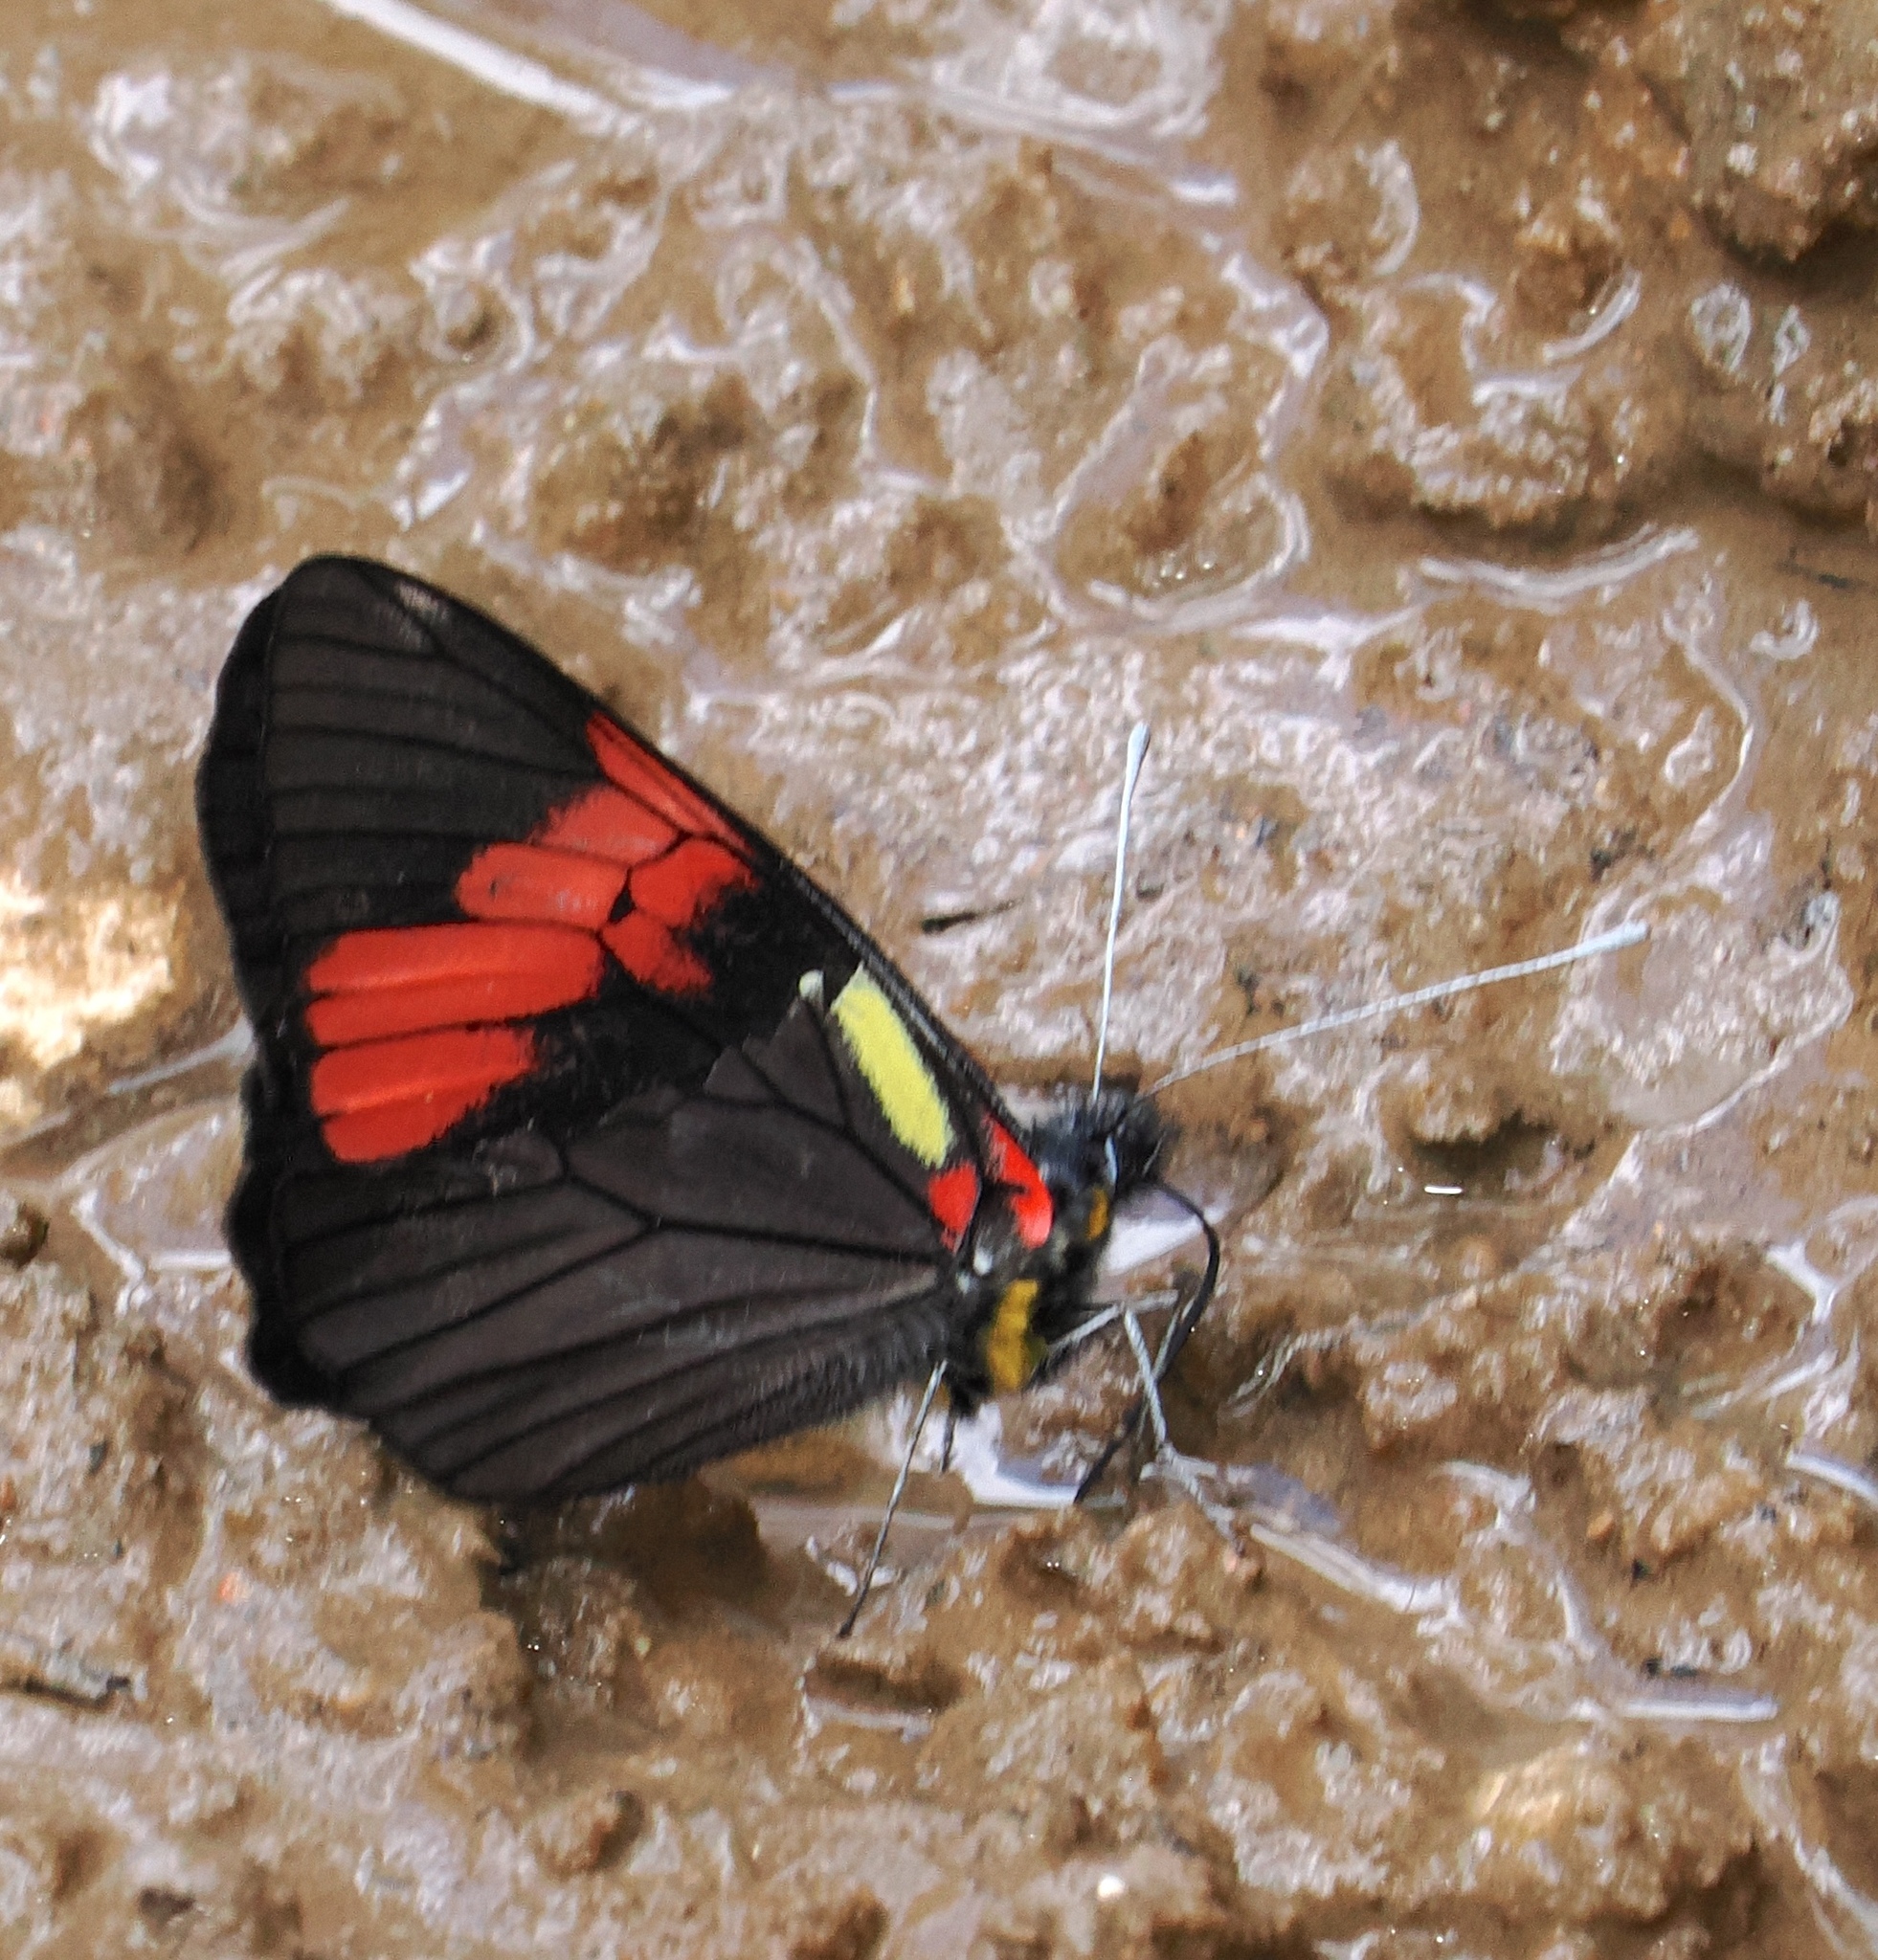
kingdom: Animalia
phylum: Arthropoda
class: Insecta
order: Lepidoptera
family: Pieridae
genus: Pereute
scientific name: Pereute swainsoni
